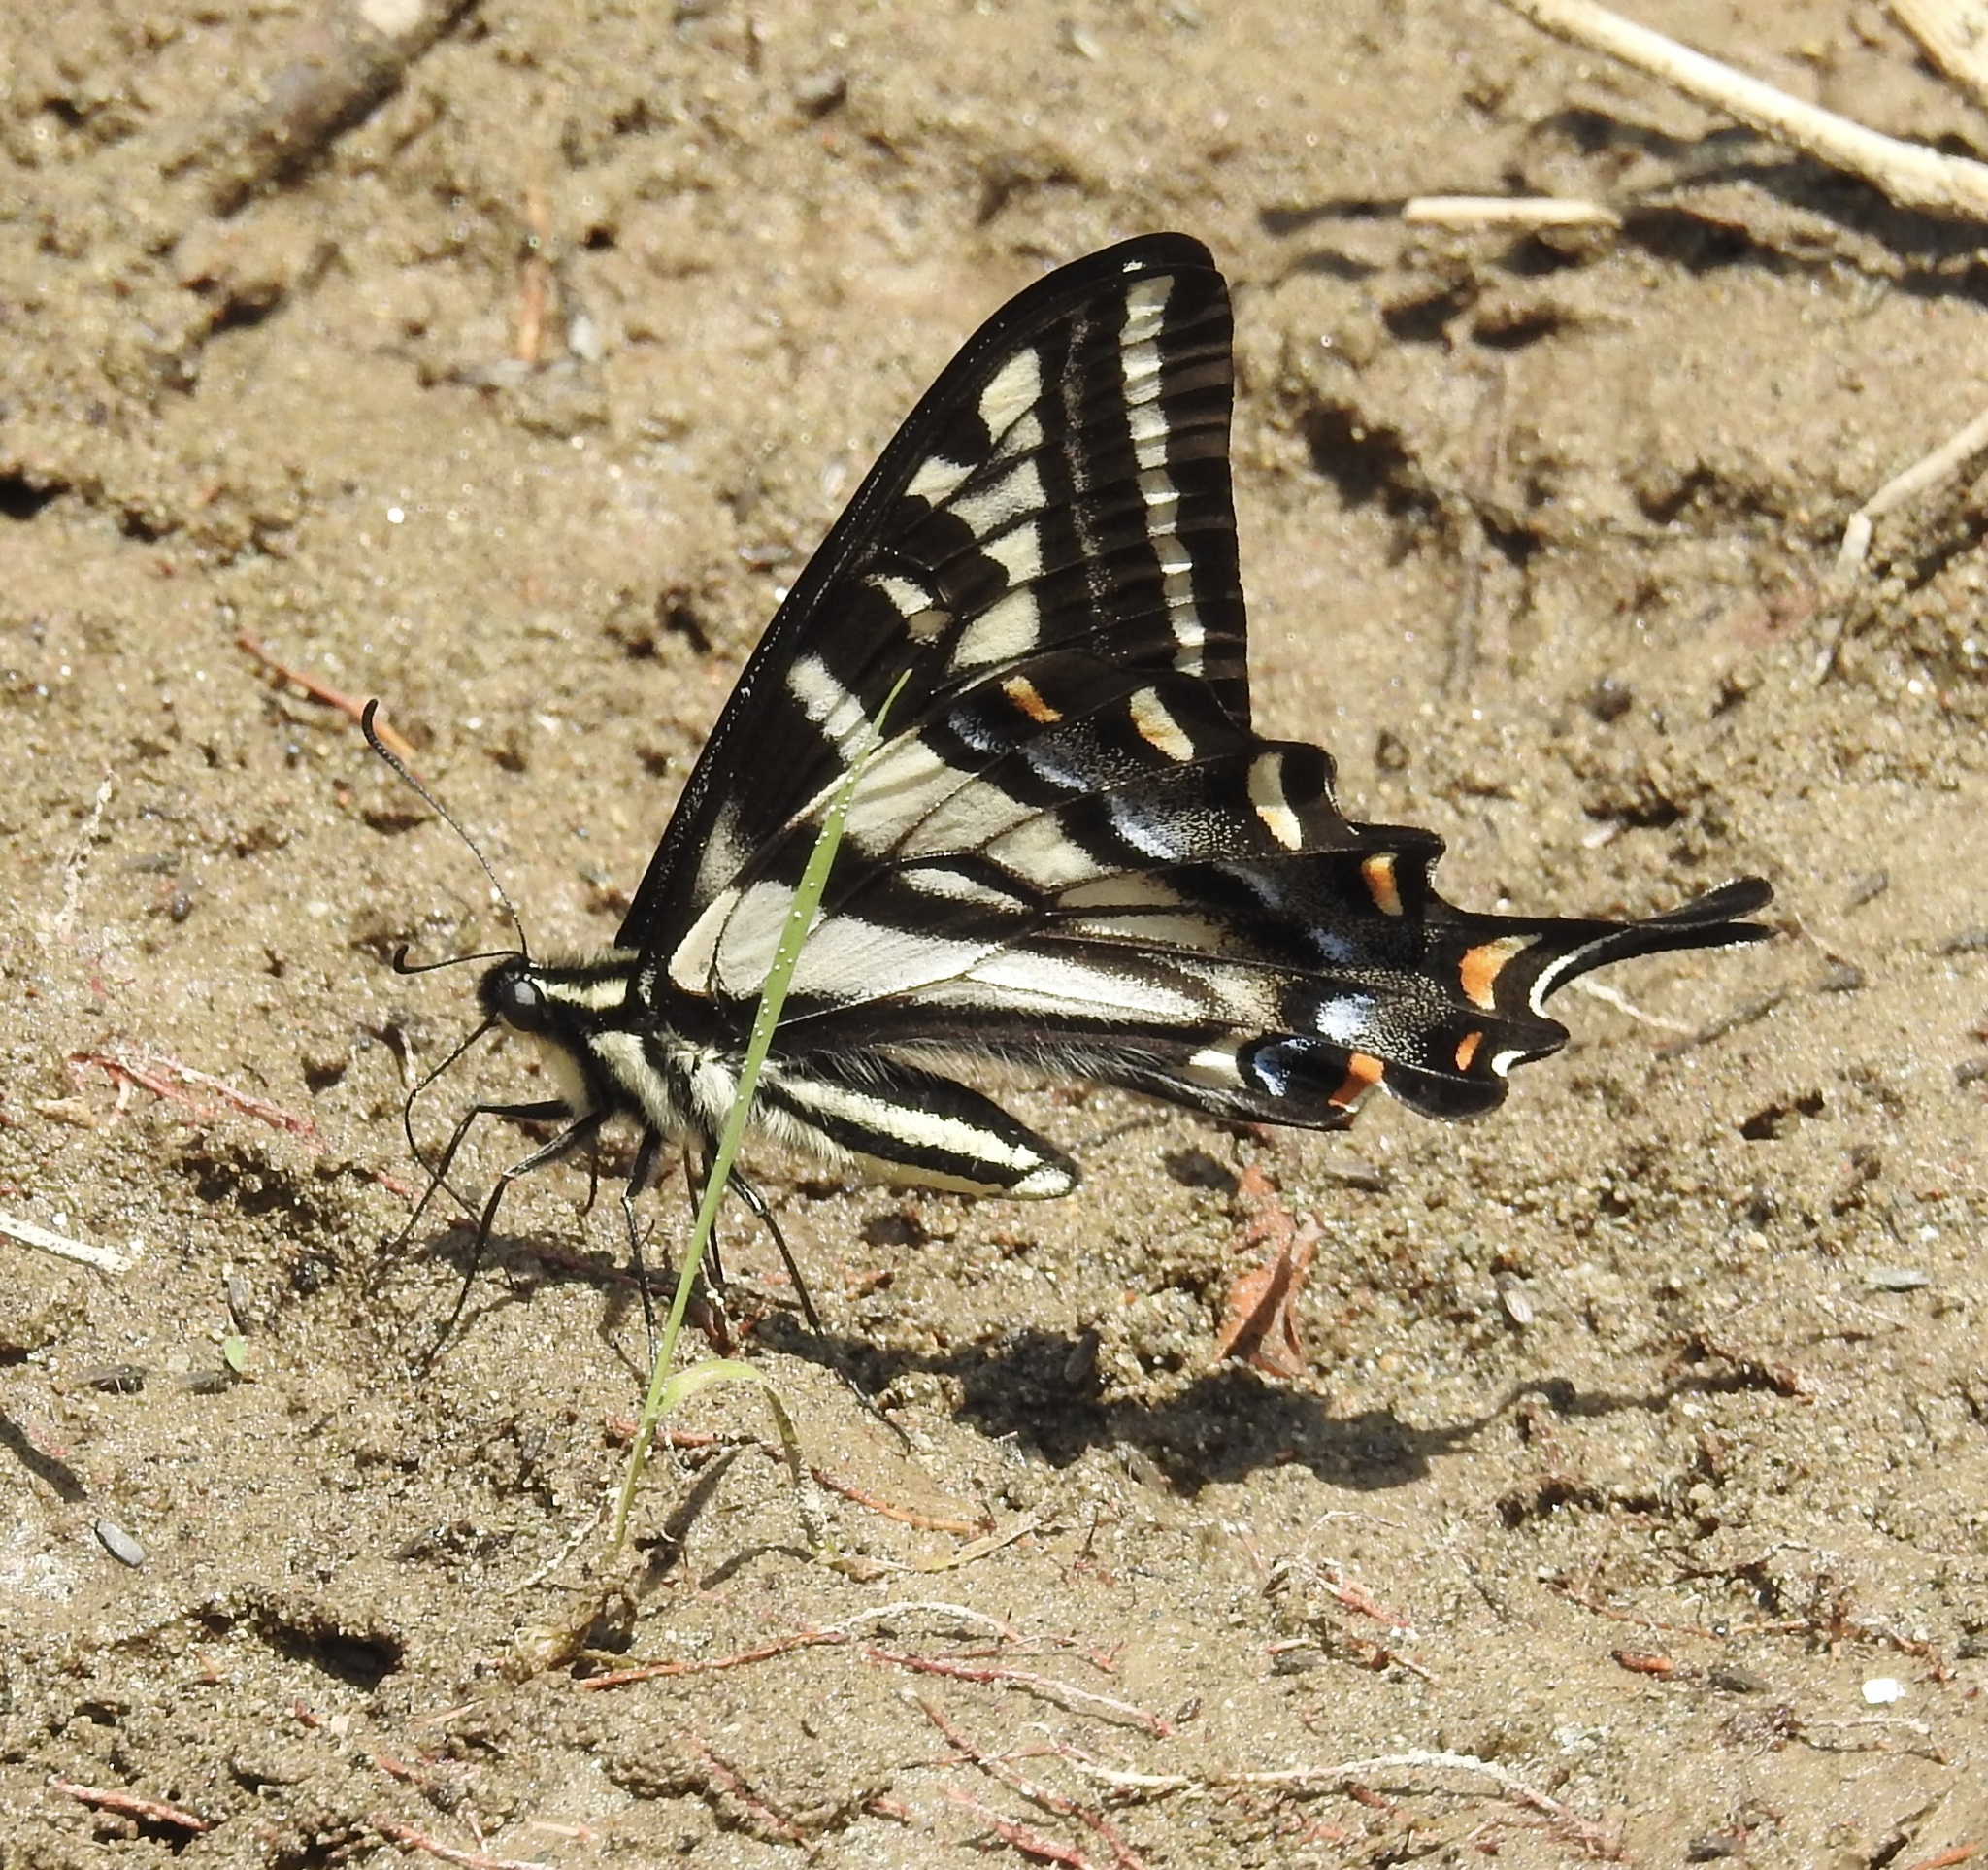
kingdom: Animalia
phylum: Arthropoda
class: Insecta
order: Lepidoptera
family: Papilionidae
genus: Papilio
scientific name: Papilio eurymedon
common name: Pale tiger swallowtail
